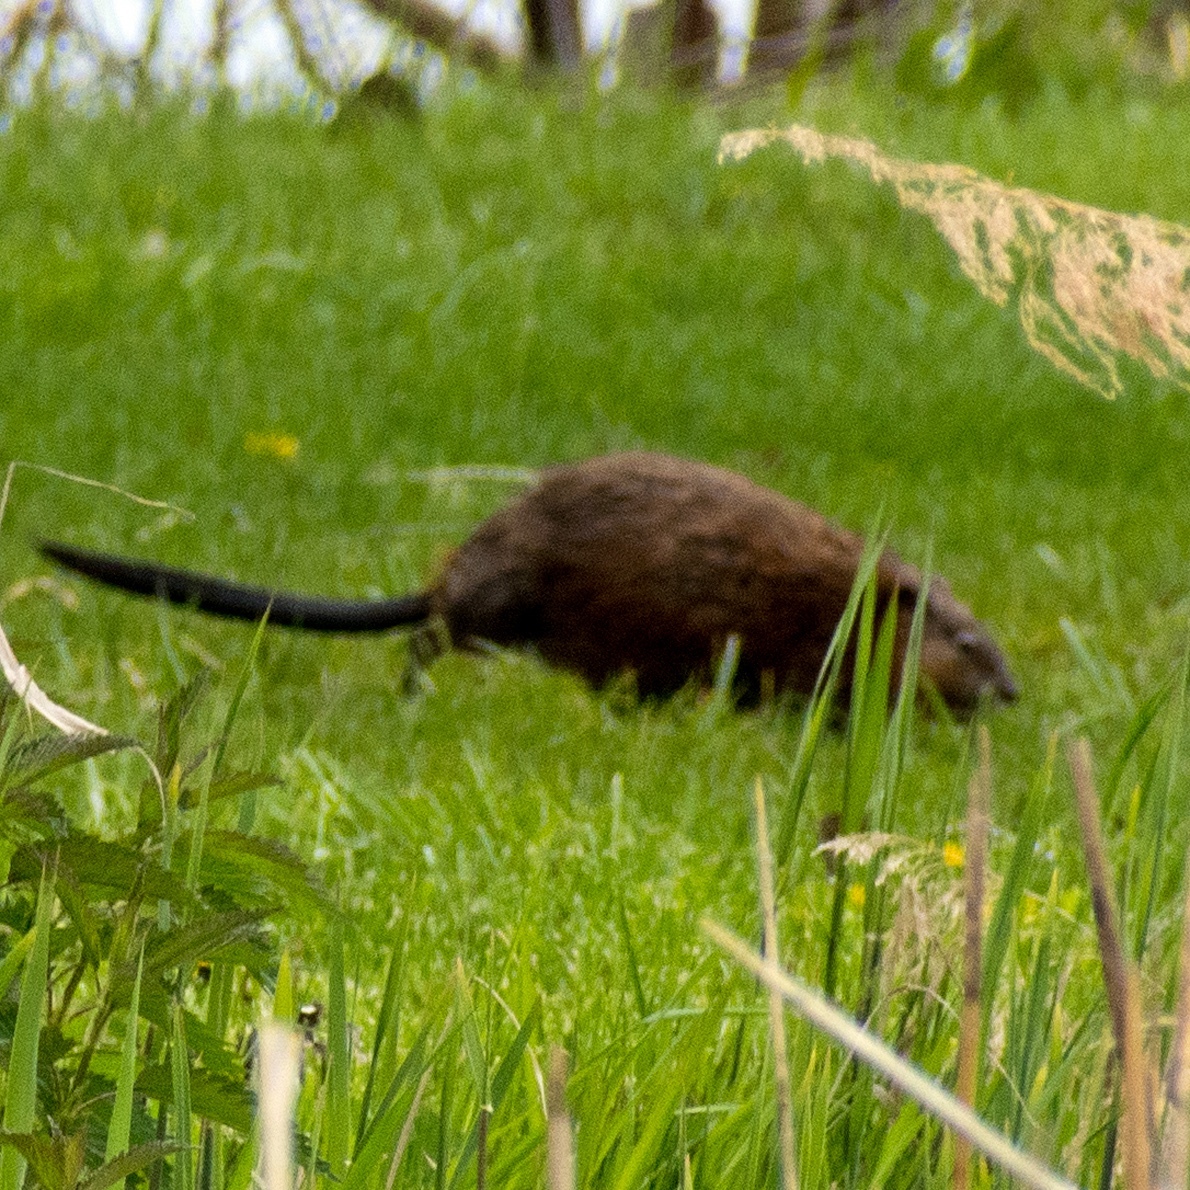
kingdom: Animalia
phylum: Chordata
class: Mammalia
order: Rodentia
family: Cricetidae
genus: Ondatra
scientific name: Ondatra zibethicus
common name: Muskrat
